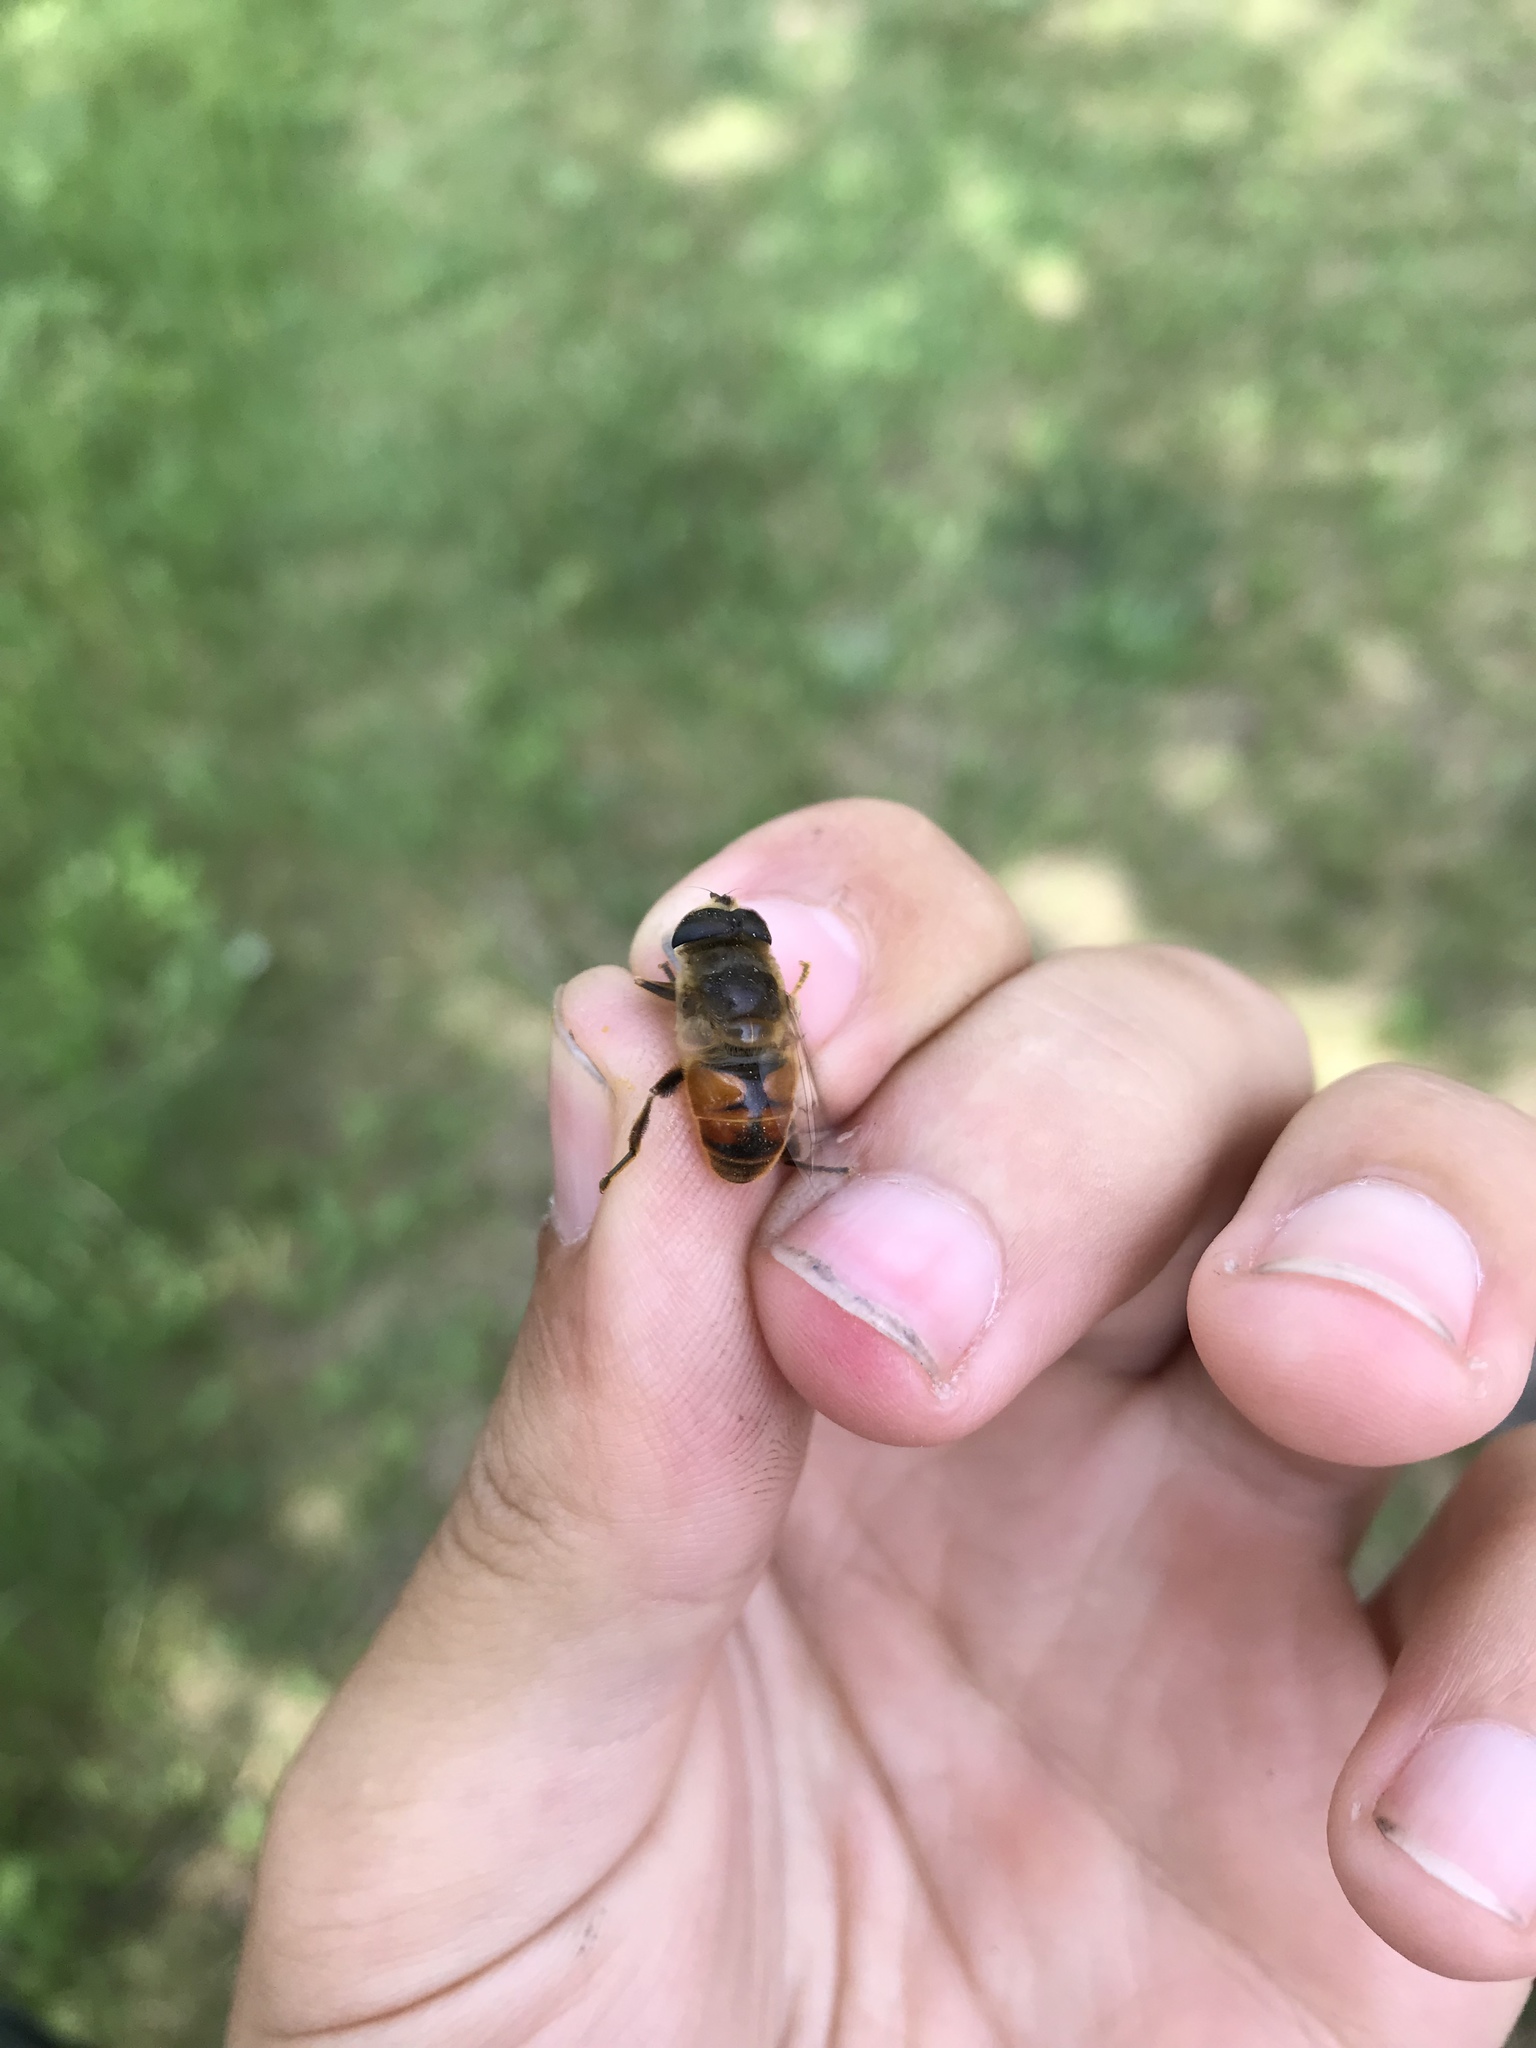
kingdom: Animalia
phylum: Arthropoda
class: Insecta
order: Diptera
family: Syrphidae
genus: Eristalis
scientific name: Eristalis tenax
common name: Drone fly
